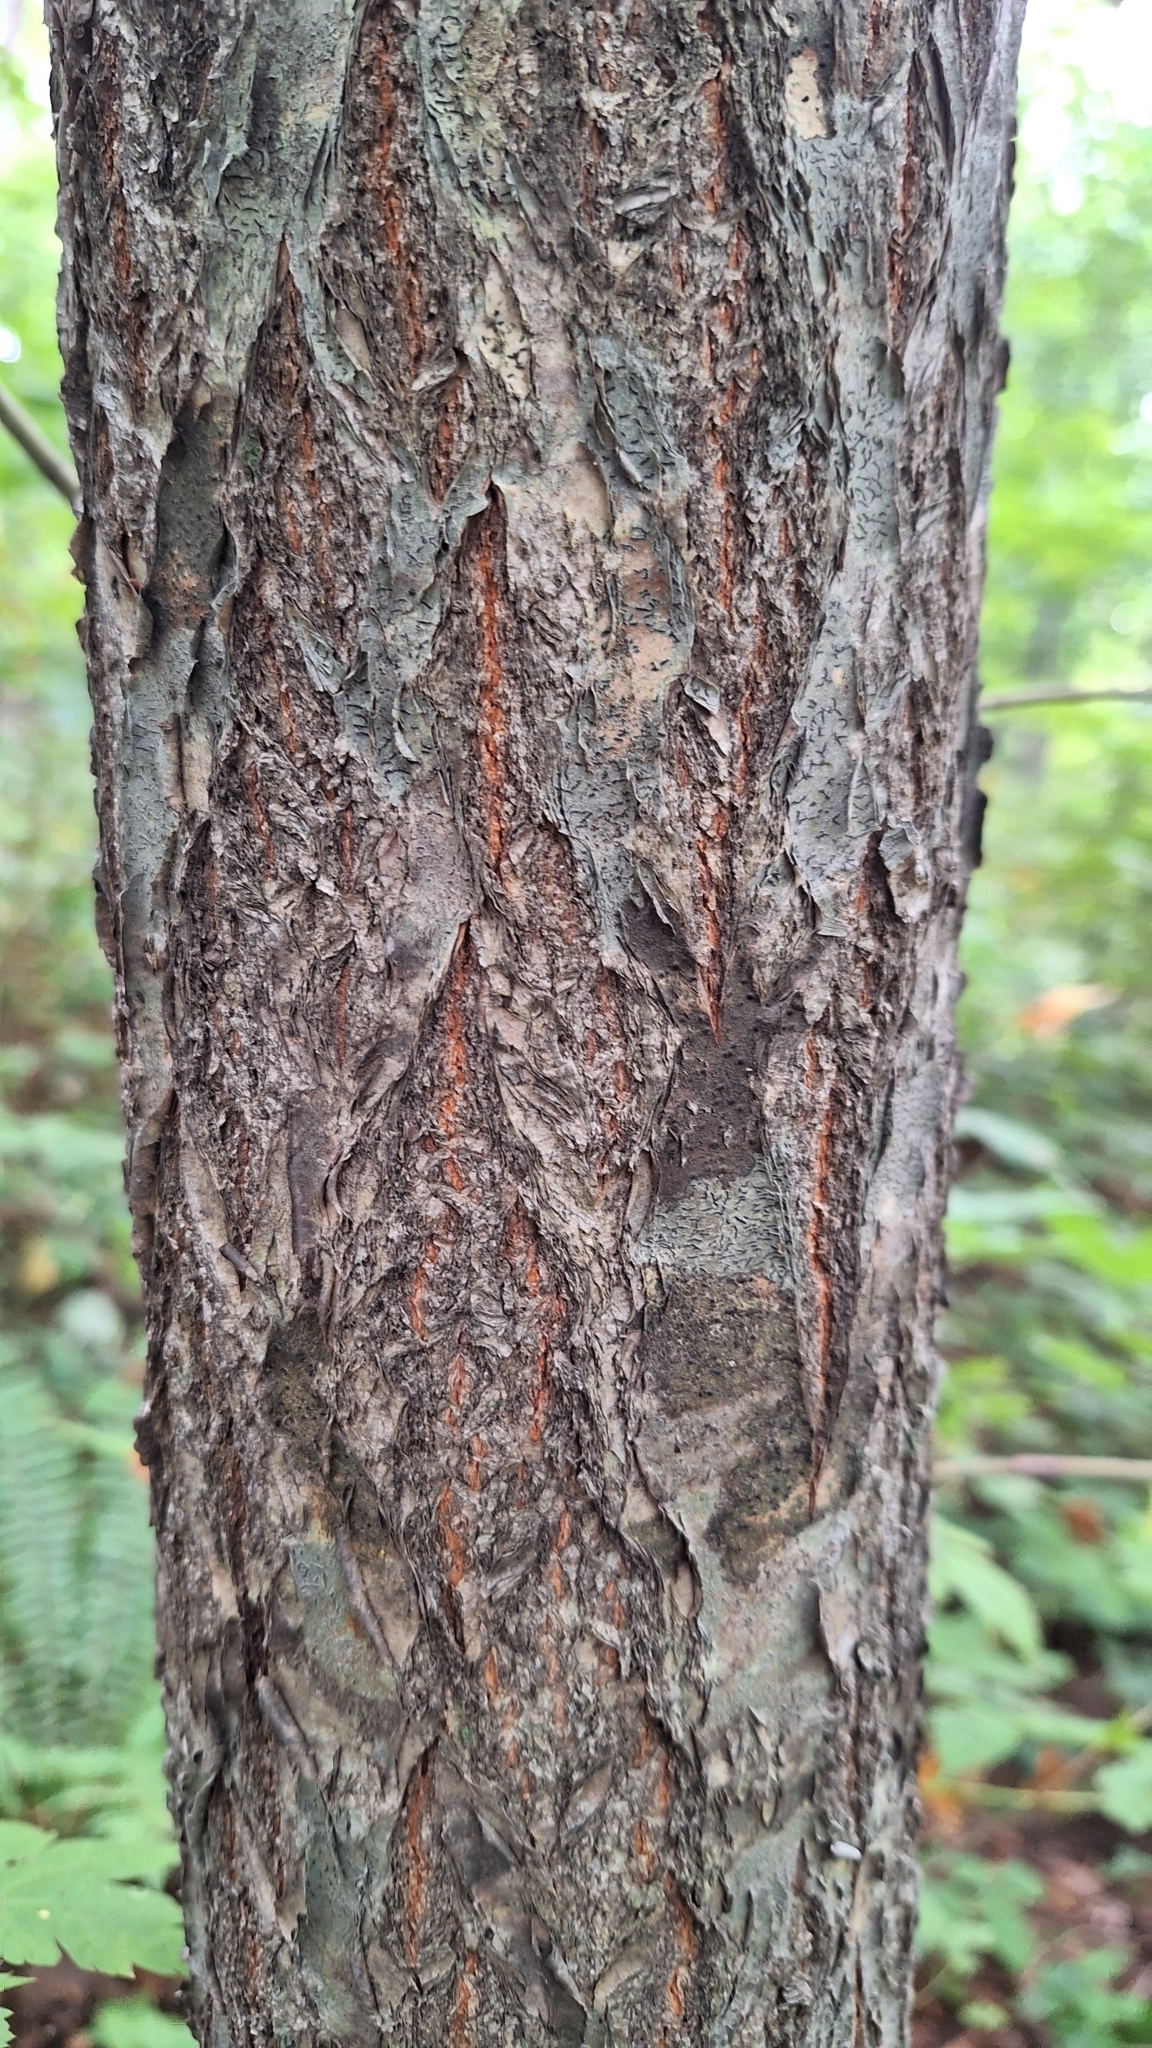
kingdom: Plantae
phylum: Tracheophyta
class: Magnoliopsida
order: Fagales
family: Betulaceae
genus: Carpinus
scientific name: Carpinus cordata
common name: Sawa hornbeam
